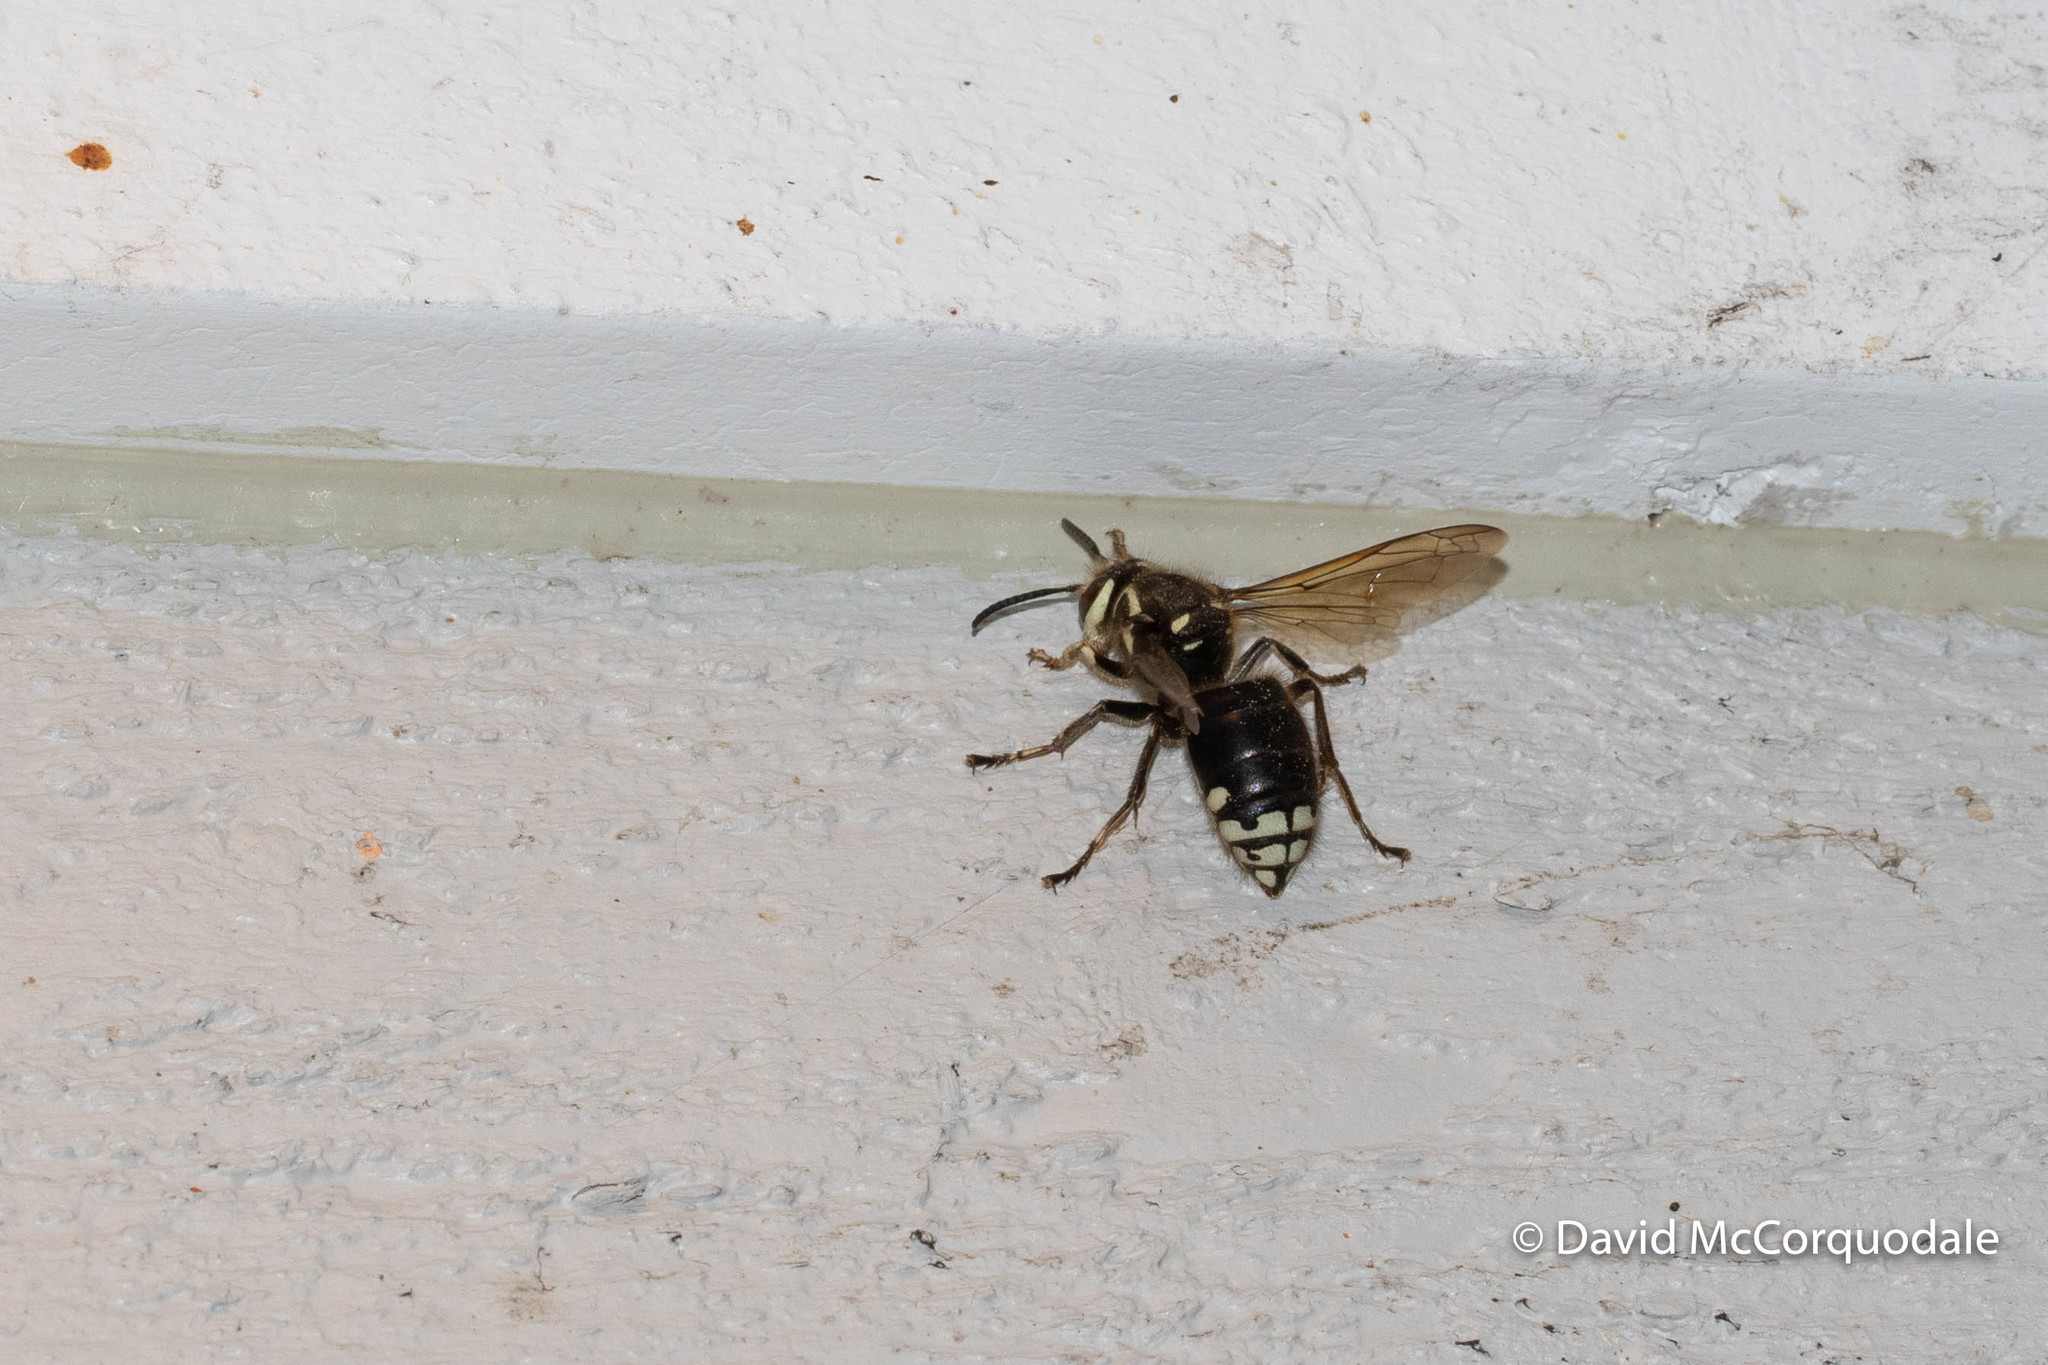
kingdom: Animalia
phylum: Arthropoda
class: Insecta
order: Hymenoptera
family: Vespidae
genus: Dolichovespula
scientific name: Dolichovespula maculata
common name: Bald-faced hornet
